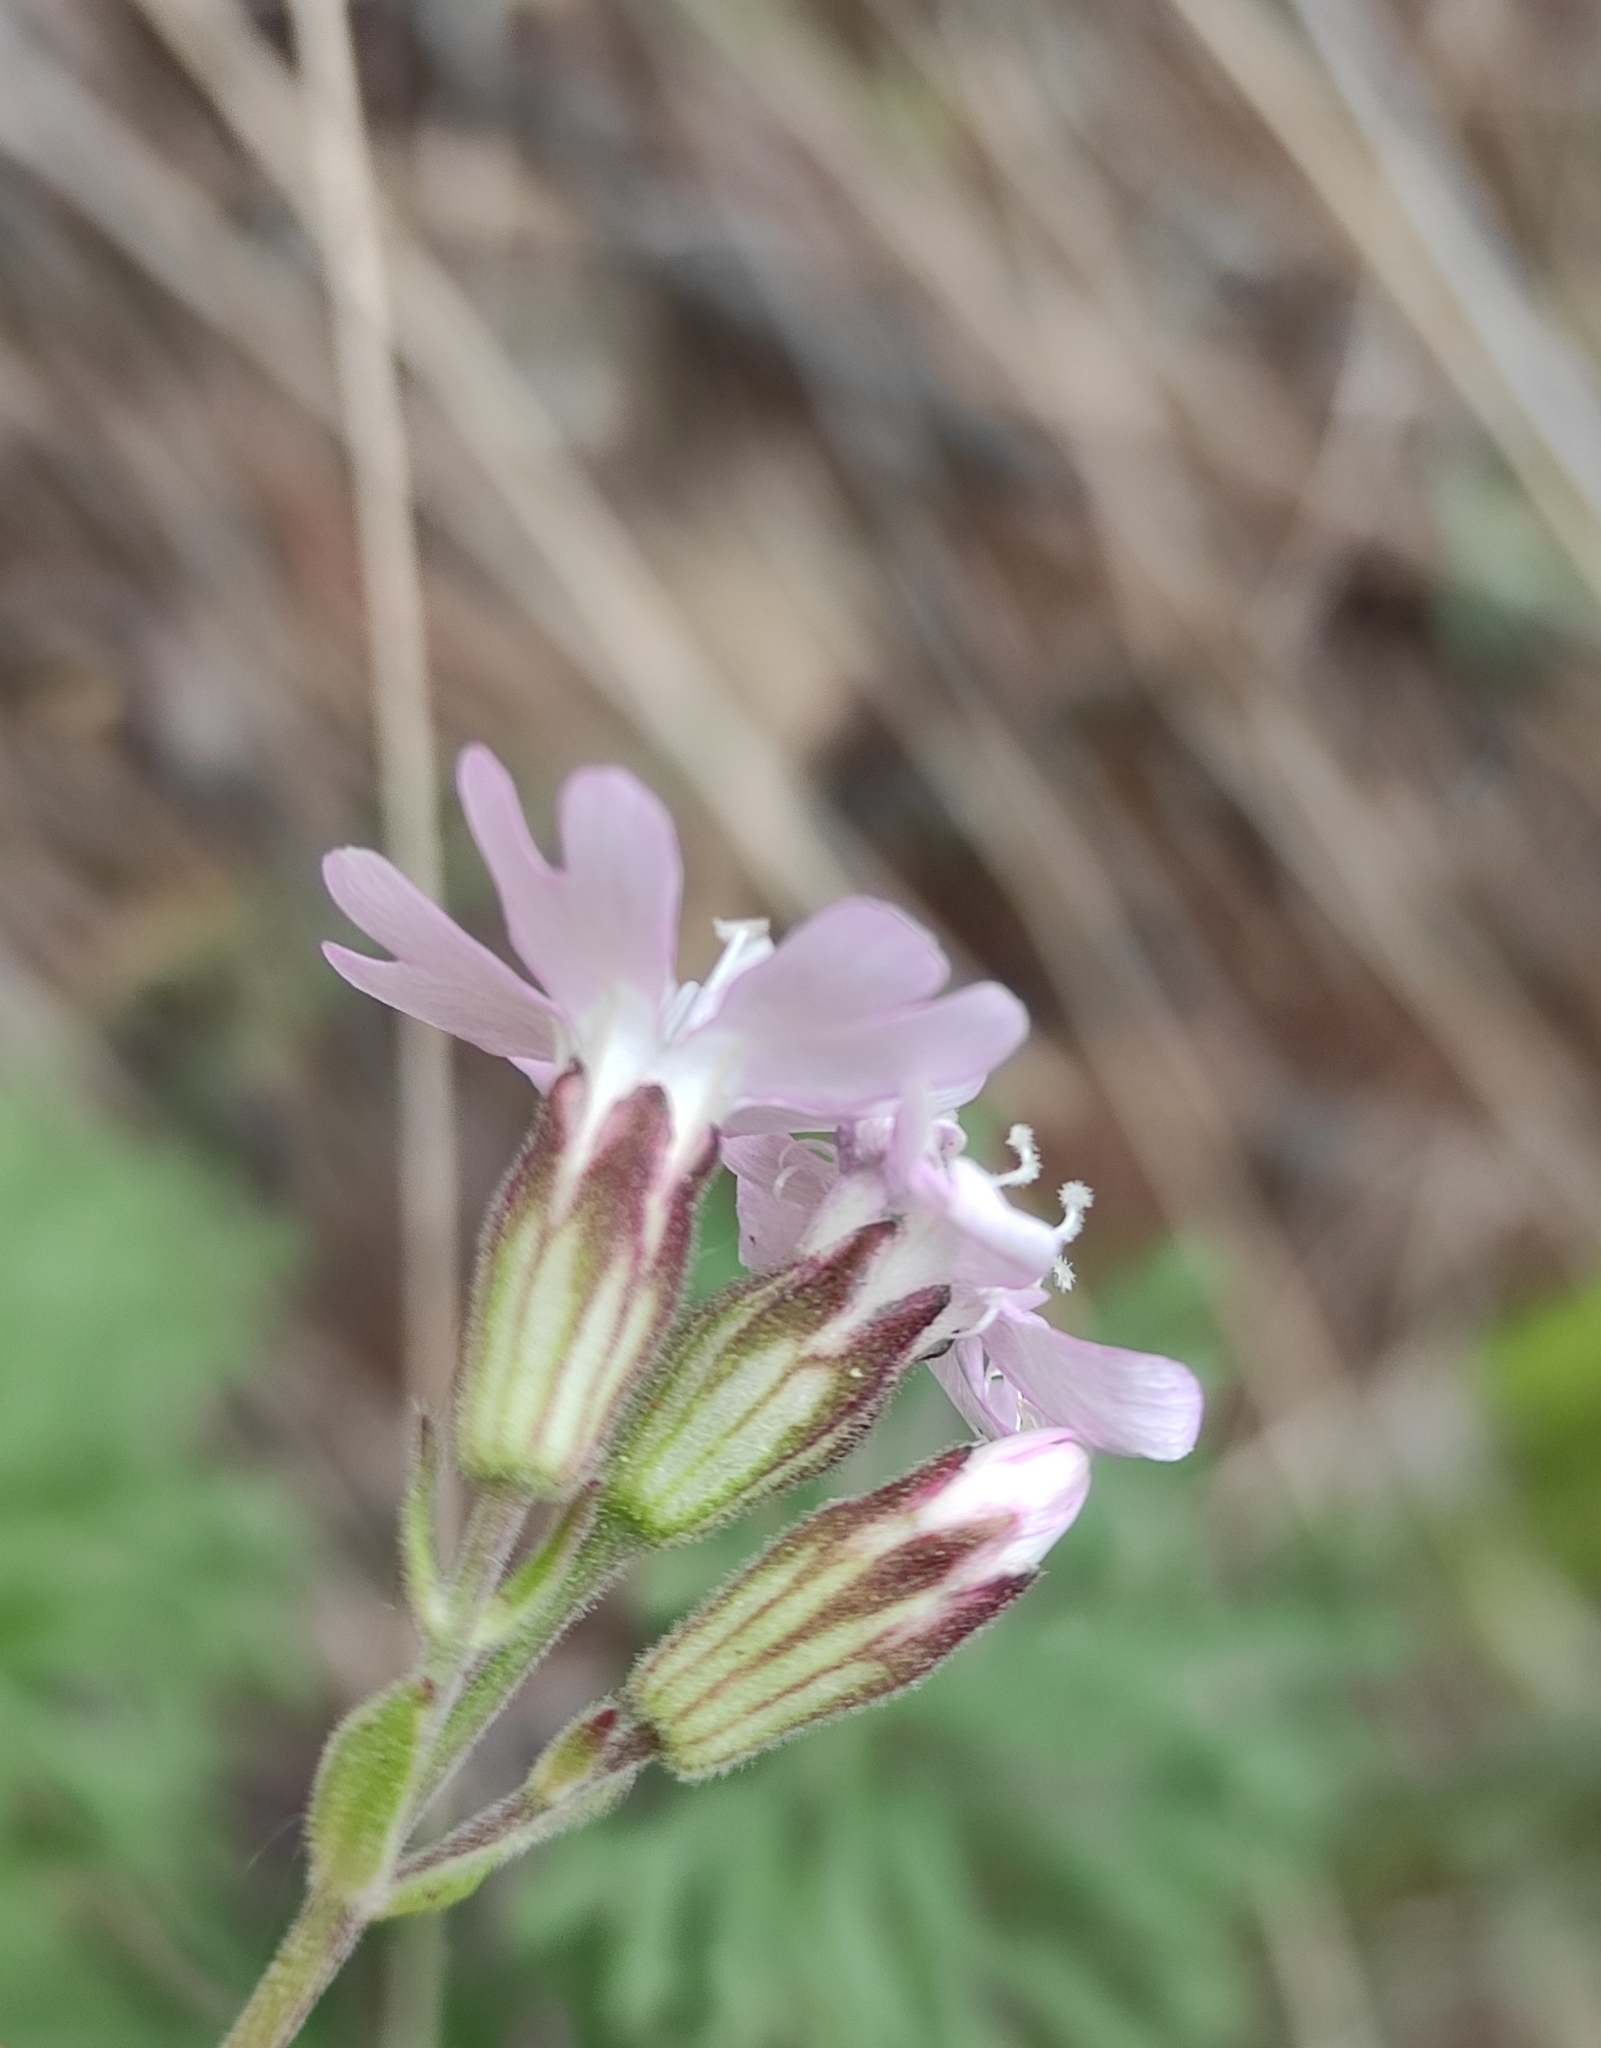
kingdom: Plantae
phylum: Tracheophyta
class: Magnoliopsida
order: Caryophyllales
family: Caryophyllaceae
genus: Silene
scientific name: Silene orientalimongolica
